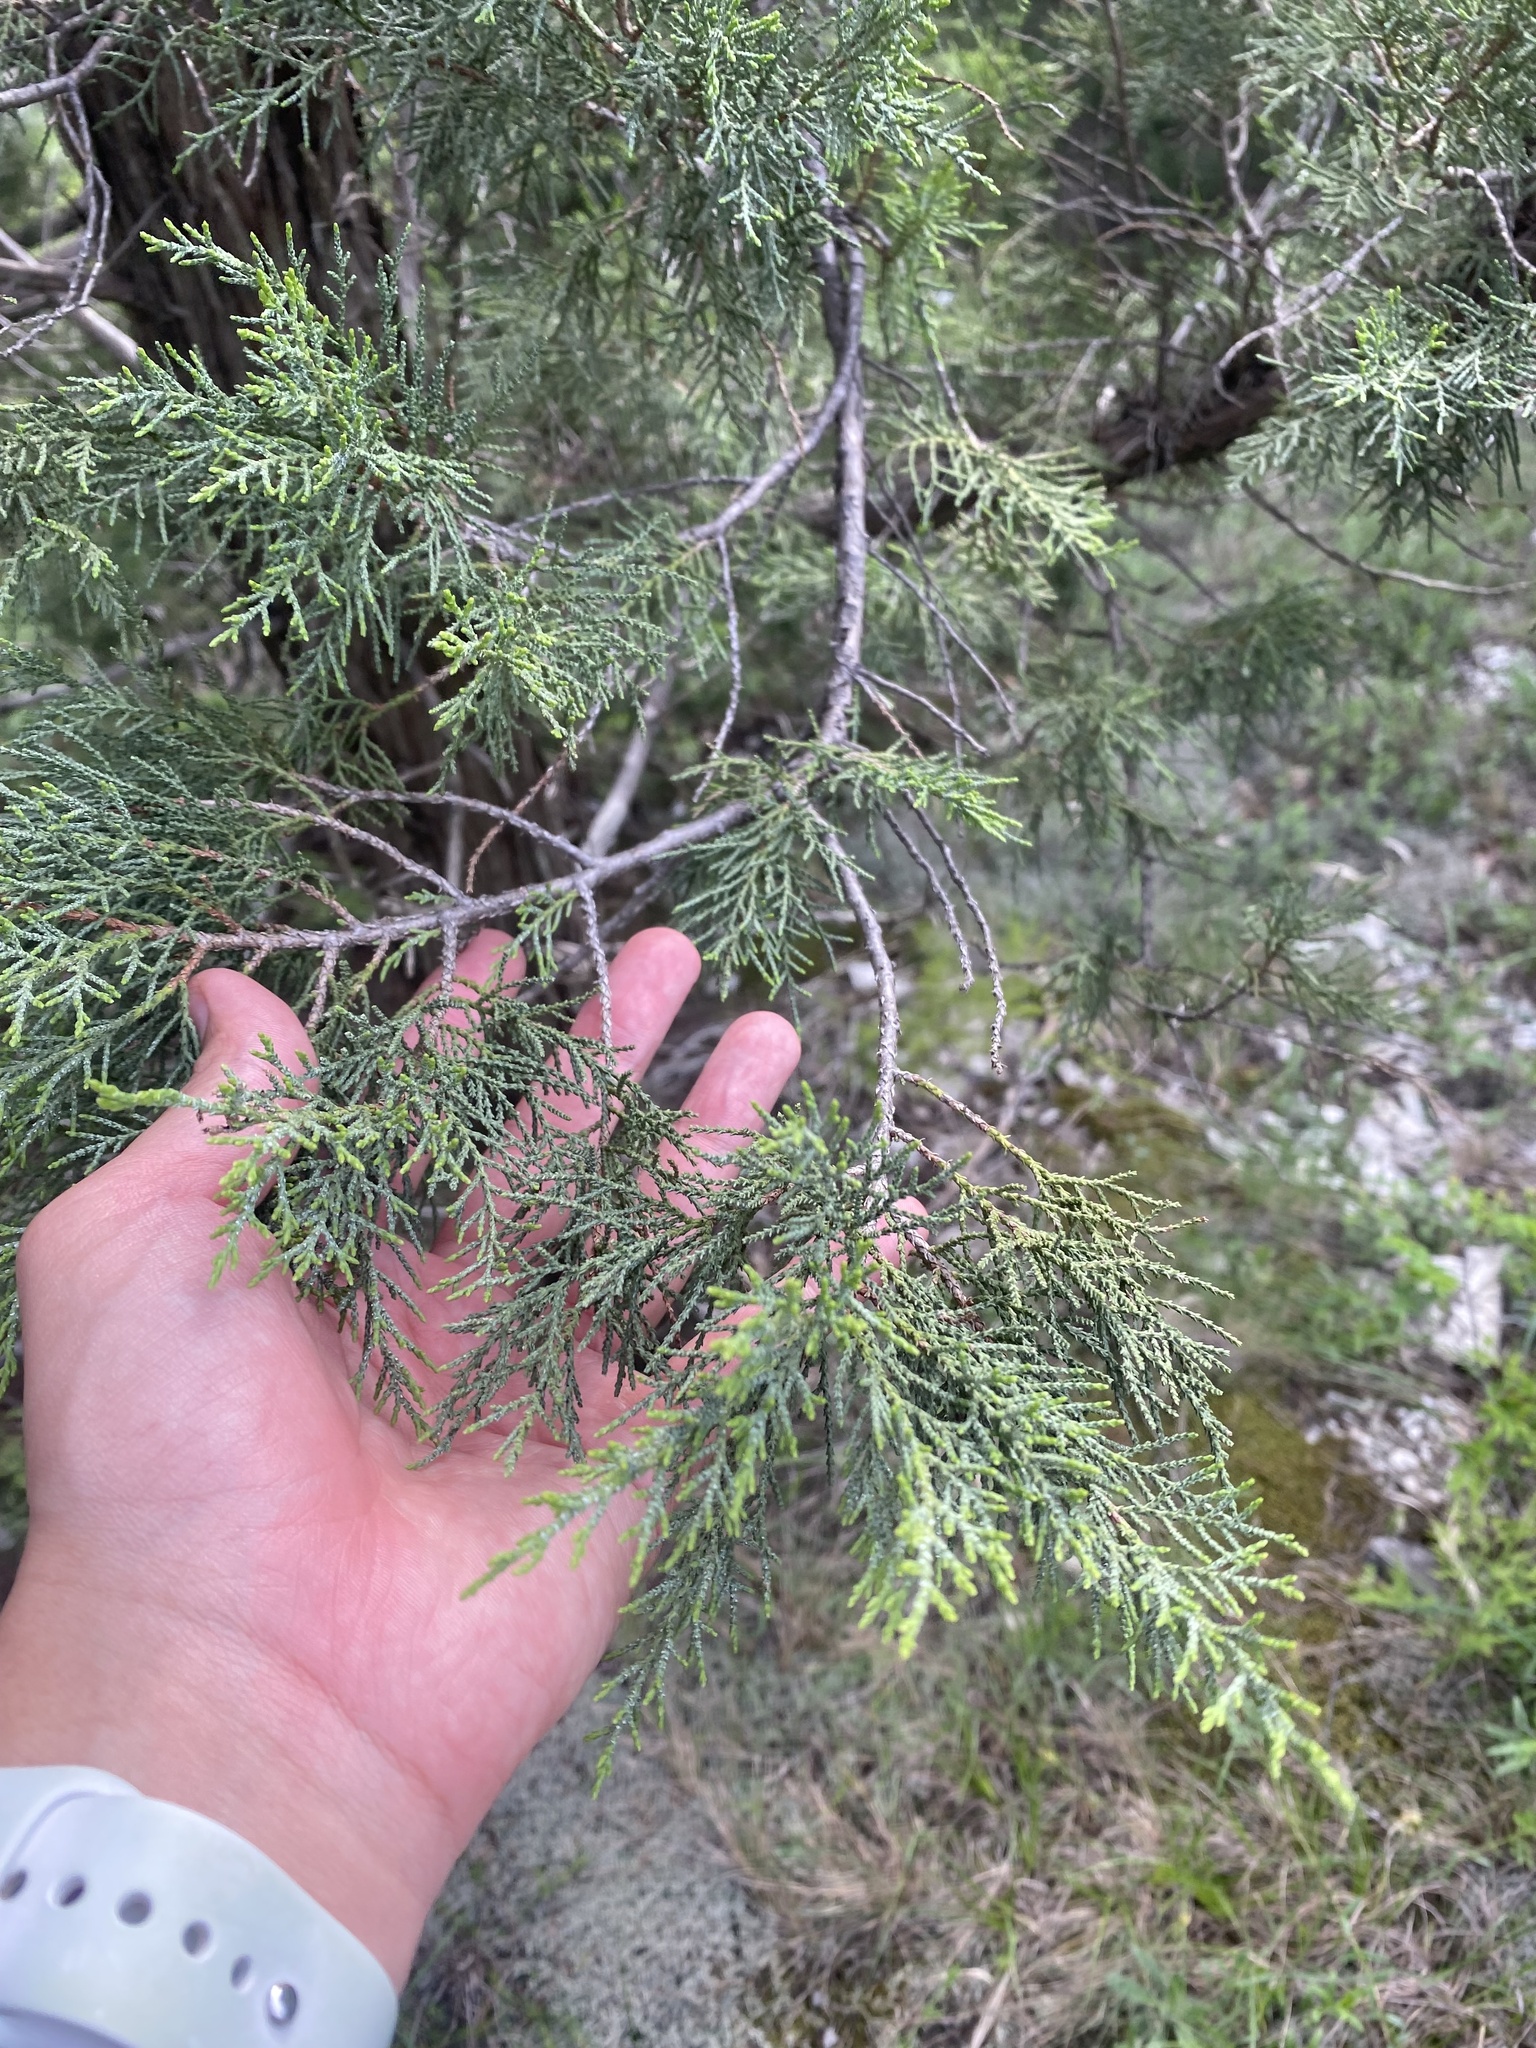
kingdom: Plantae
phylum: Tracheophyta
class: Pinopsida
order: Pinales
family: Cupressaceae
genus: Juniperus
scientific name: Juniperus excelsa
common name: Crimean juniper
